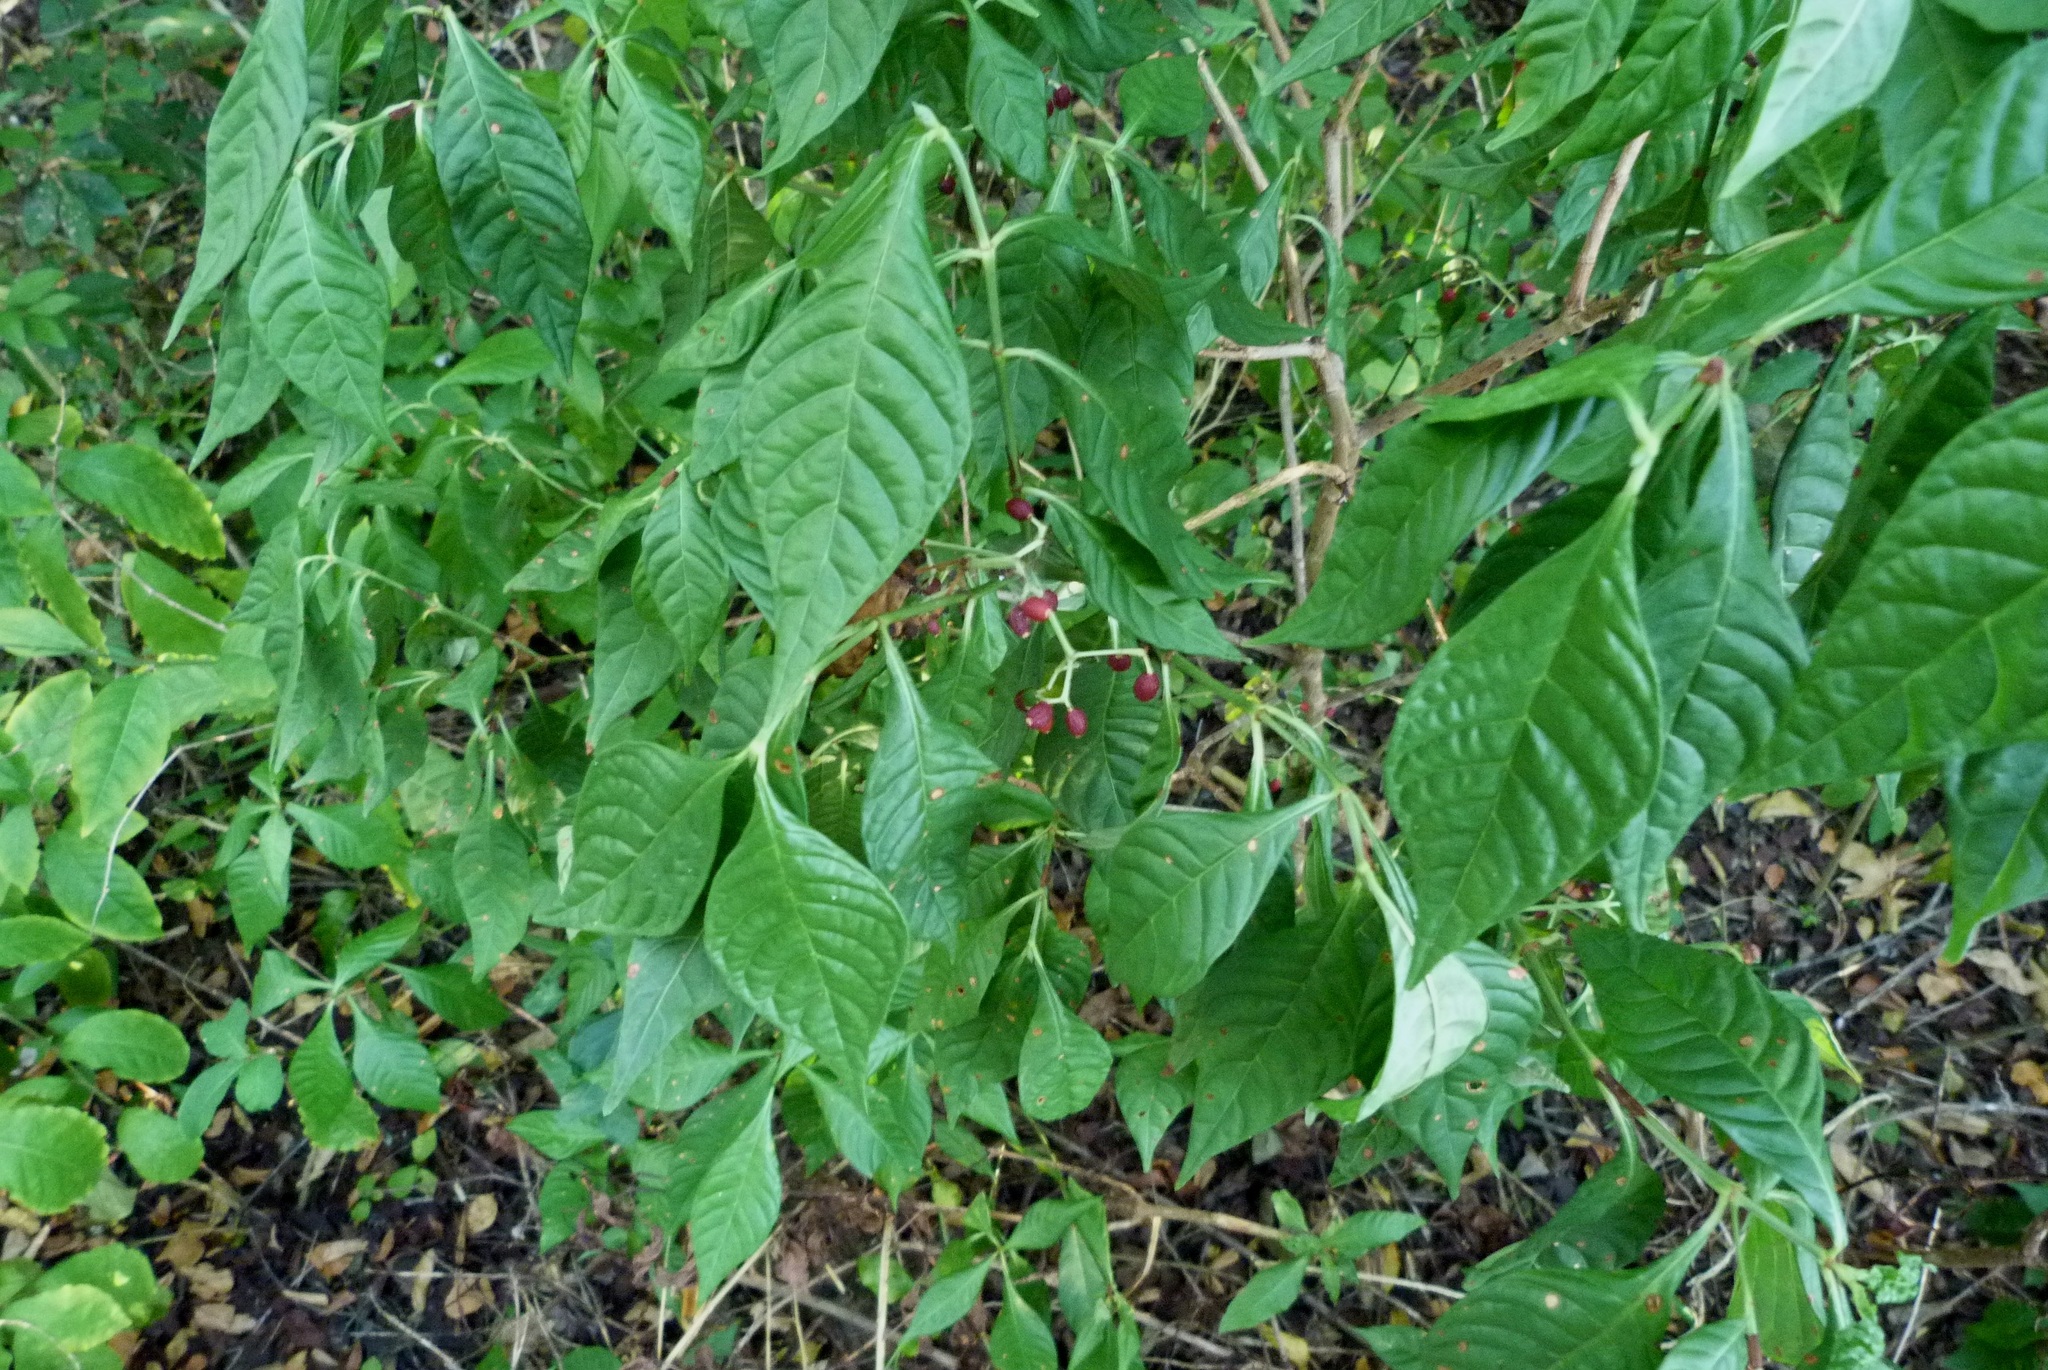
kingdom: Plantae
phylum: Tracheophyta
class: Magnoliopsida
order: Gentianales
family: Rubiaceae
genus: Psychotria
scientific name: Psychotria nervosa
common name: Bastard cankerberry
